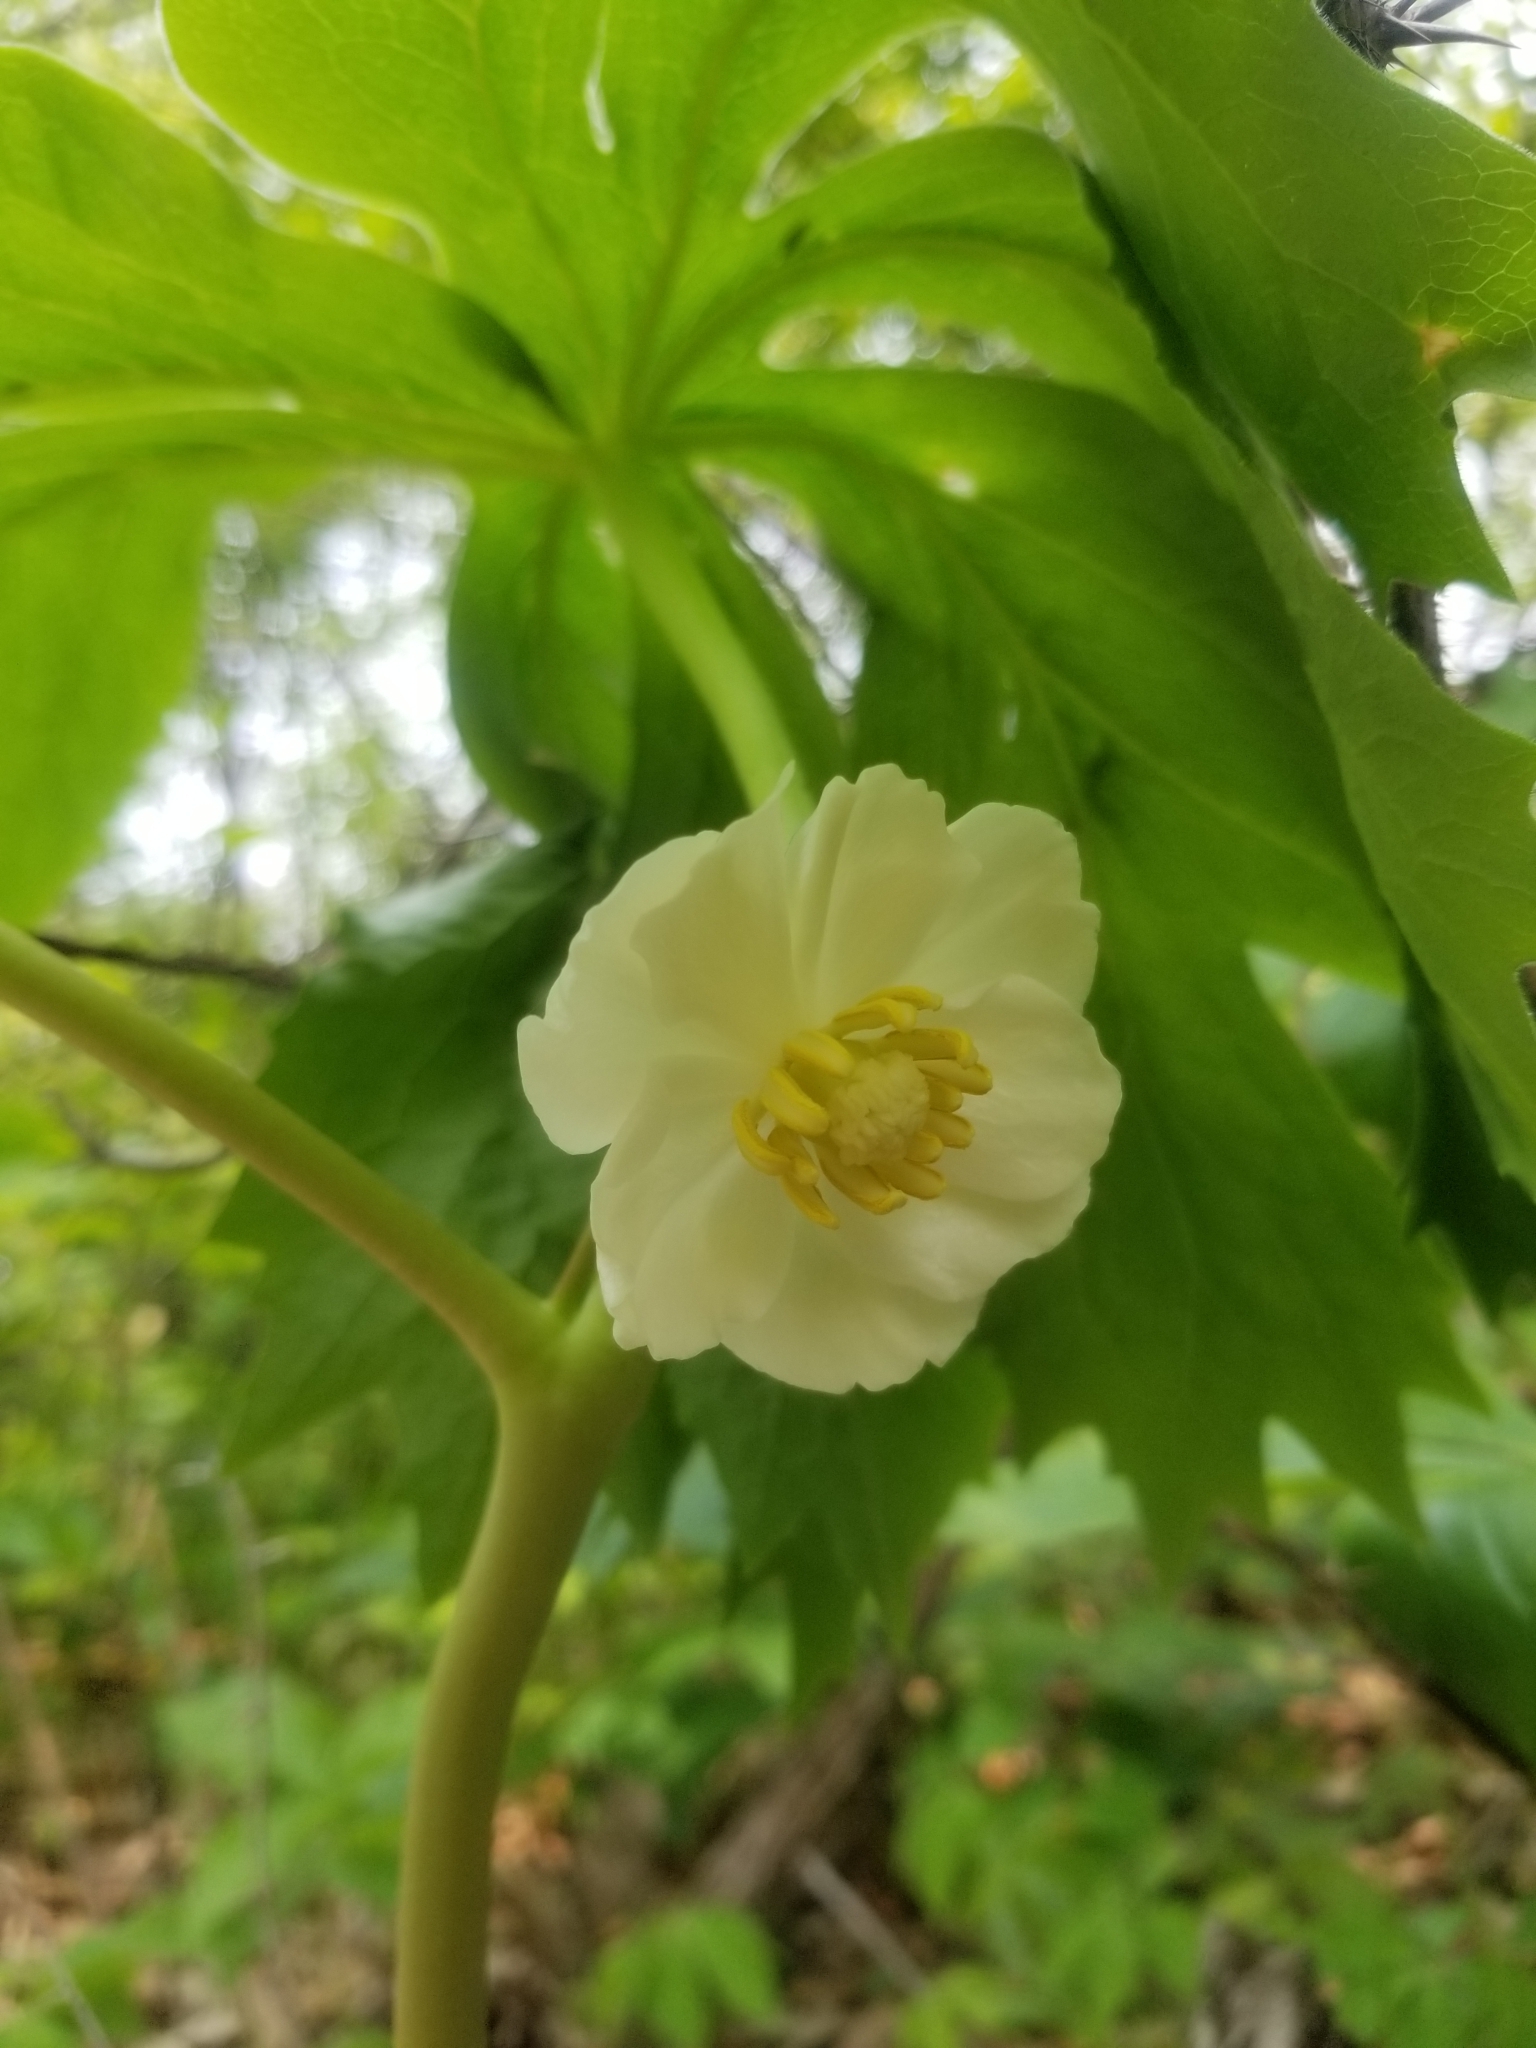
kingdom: Plantae
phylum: Tracheophyta
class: Magnoliopsida
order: Ranunculales
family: Berberidaceae
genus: Podophyllum
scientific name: Podophyllum peltatum
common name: Wild mandrake
